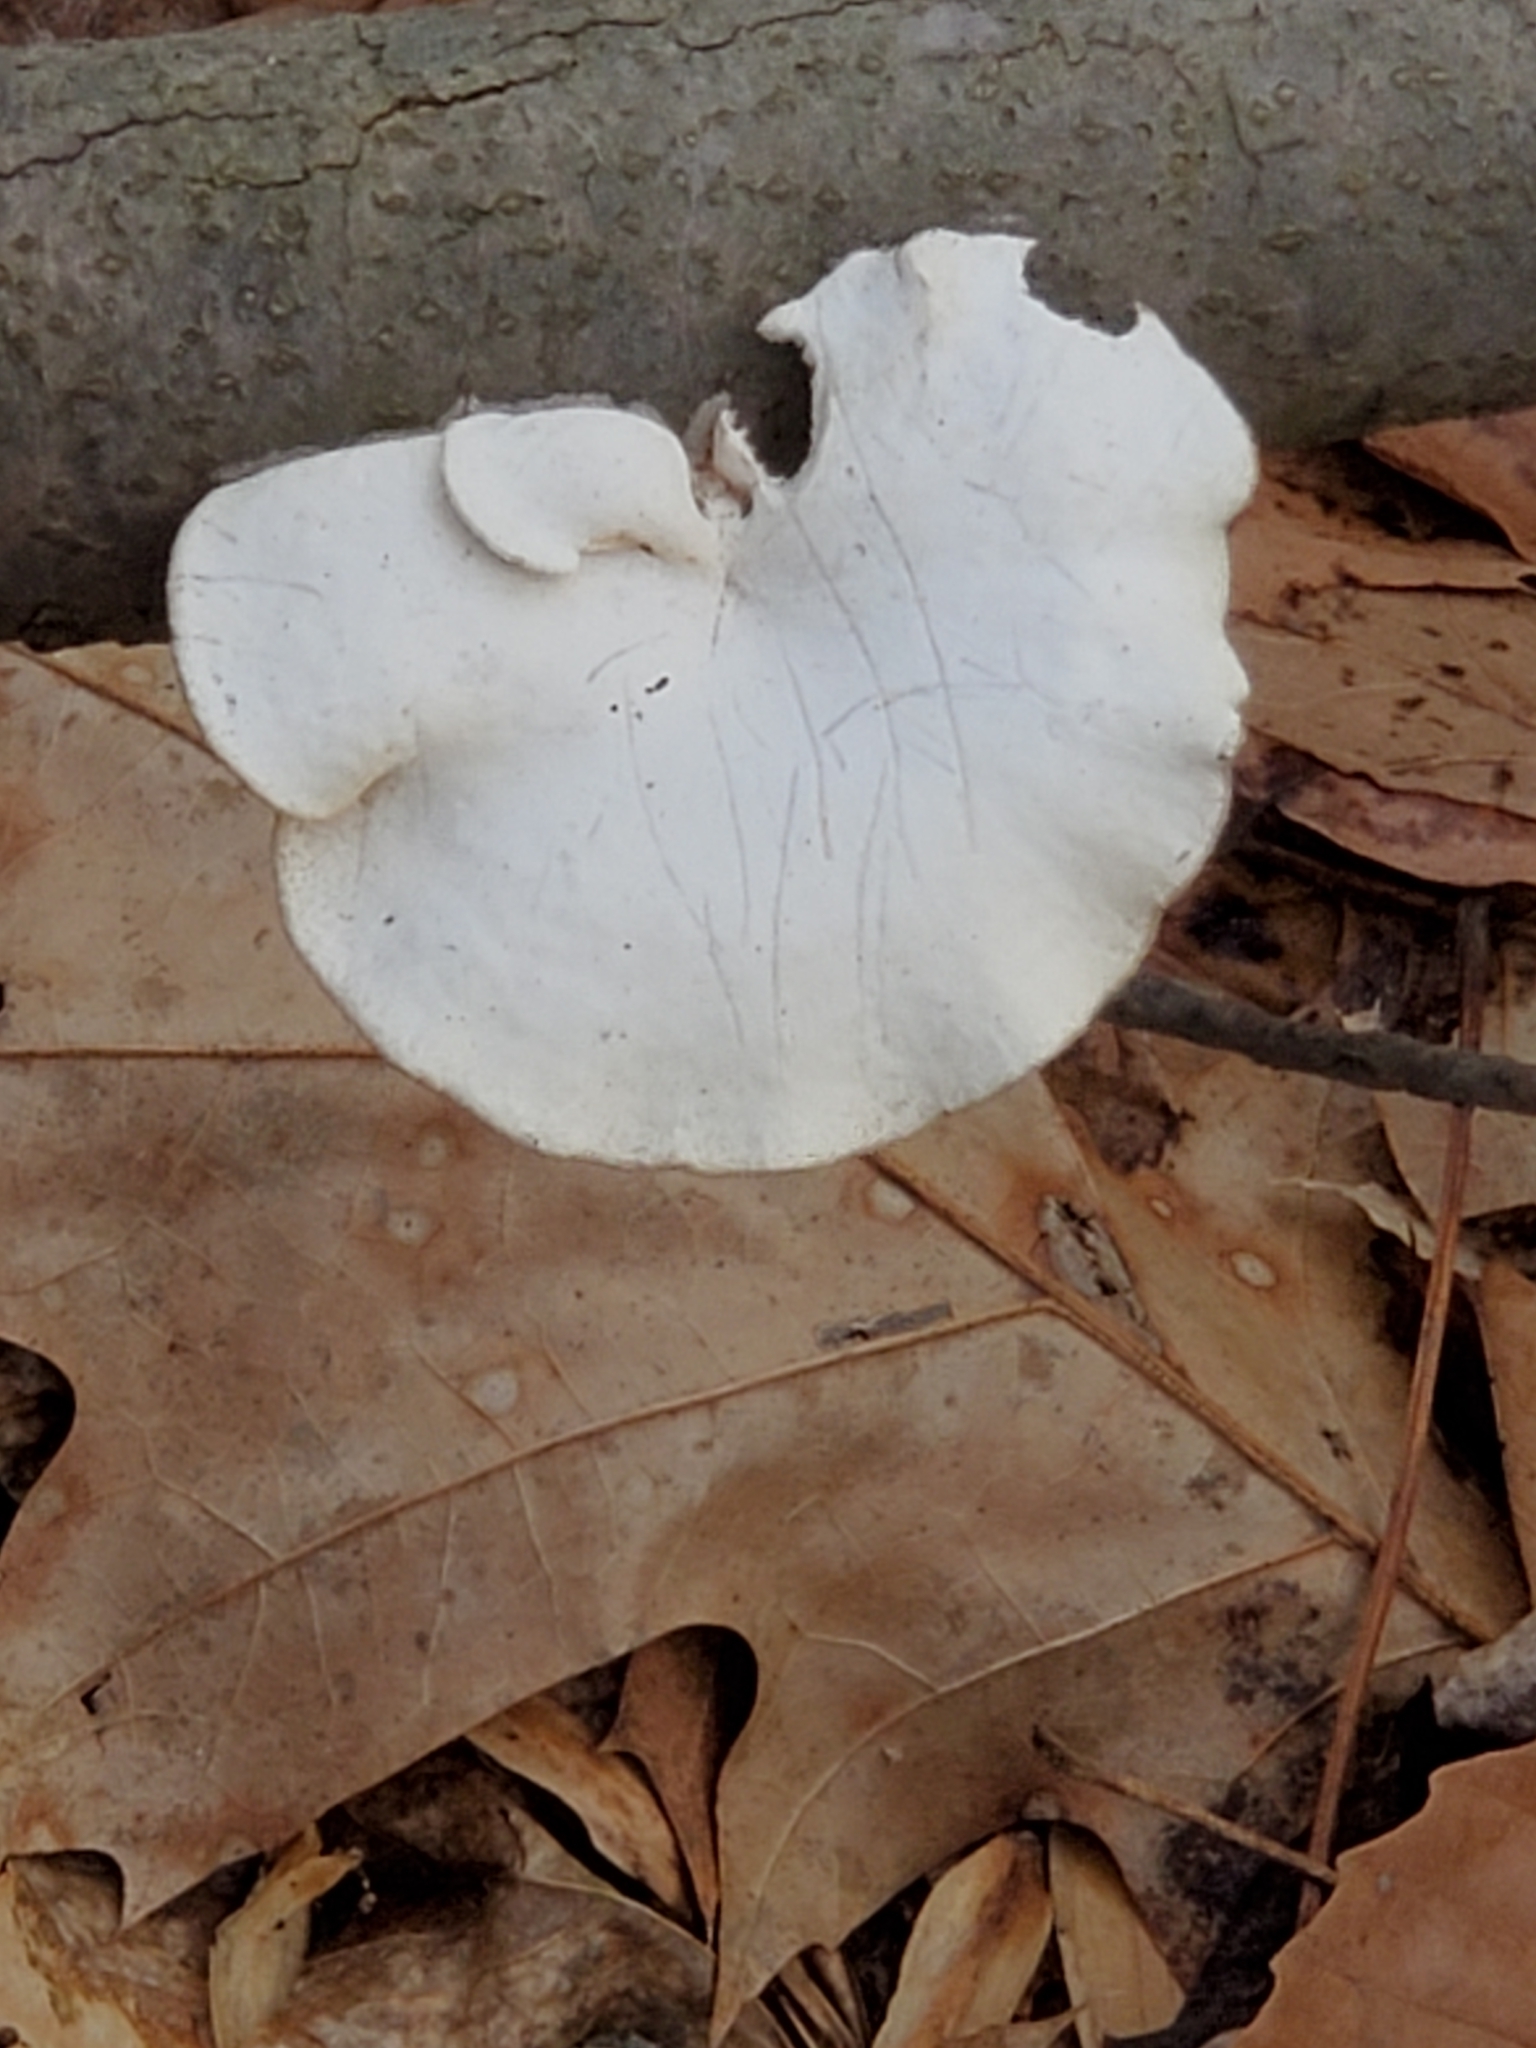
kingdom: Fungi
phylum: Basidiomycota
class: Agaricomycetes
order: Polyporales
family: Polyporaceae
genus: Neofavolus
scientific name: Neofavolus alveolaris
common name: Hexagonal-pored polypore
